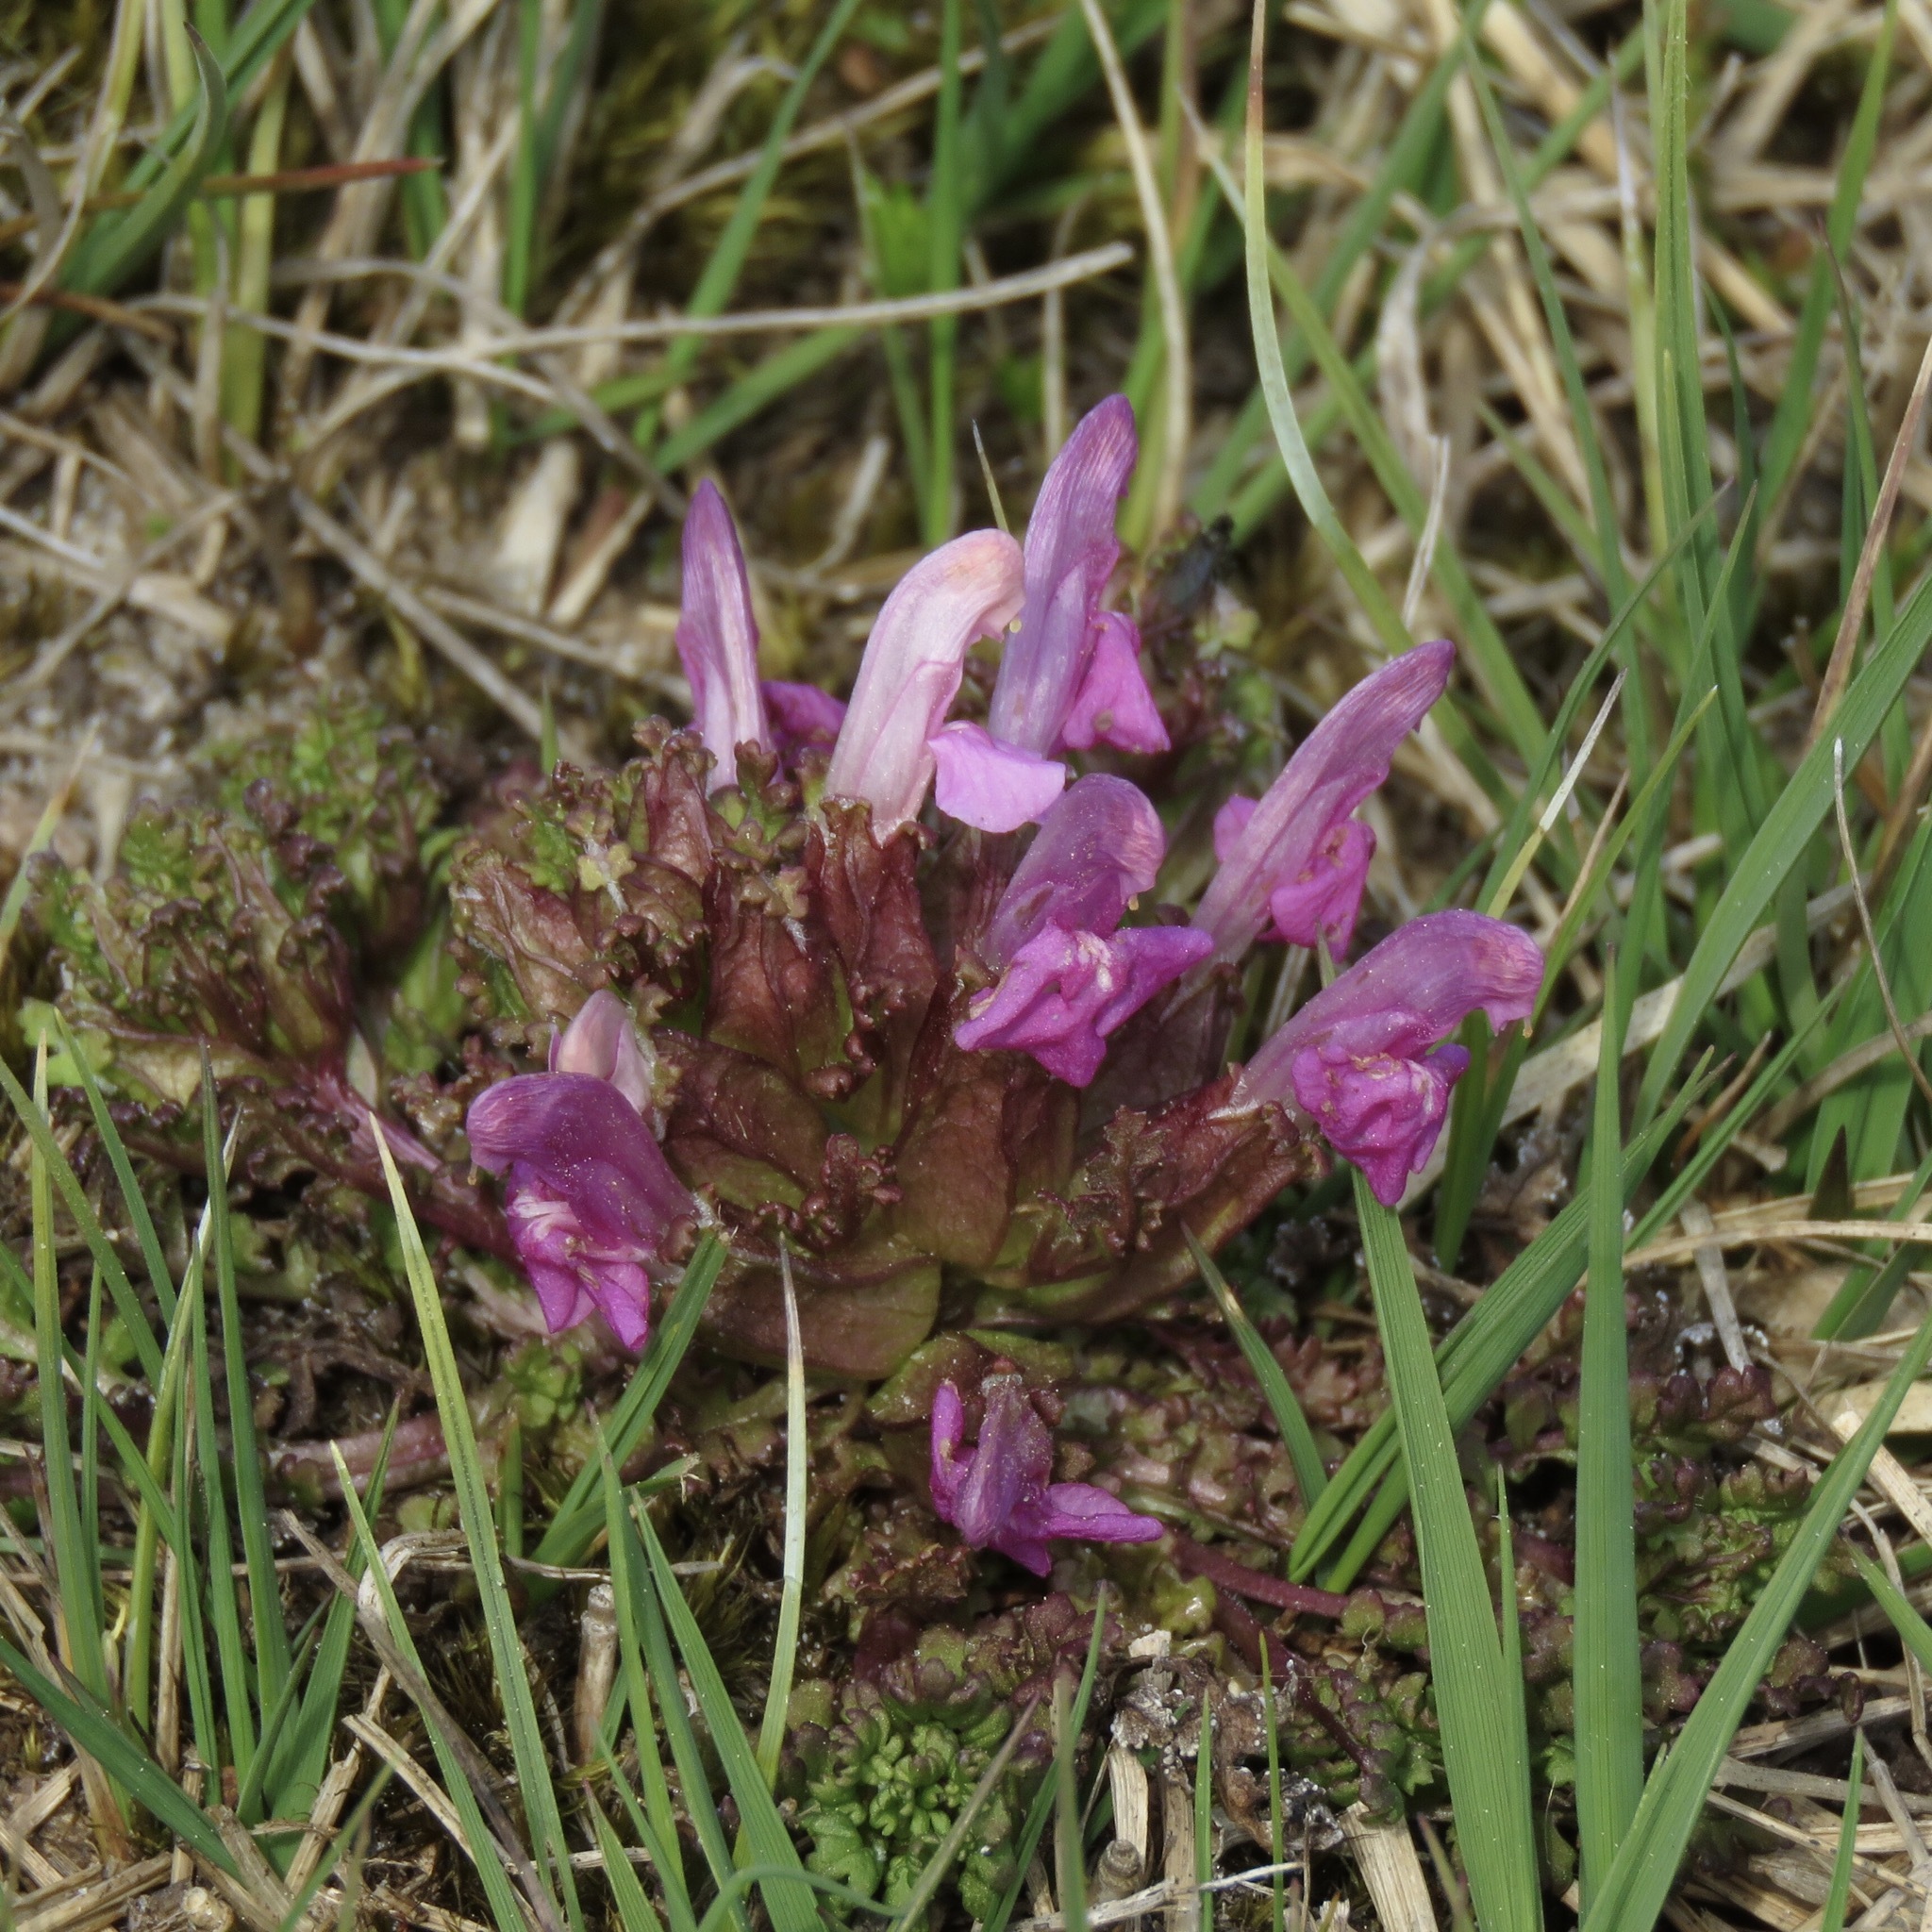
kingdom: Plantae
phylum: Tracheophyta
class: Magnoliopsida
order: Lamiales
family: Orobanchaceae
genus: Pedicularis
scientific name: Pedicularis sylvatica
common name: Lousewort
